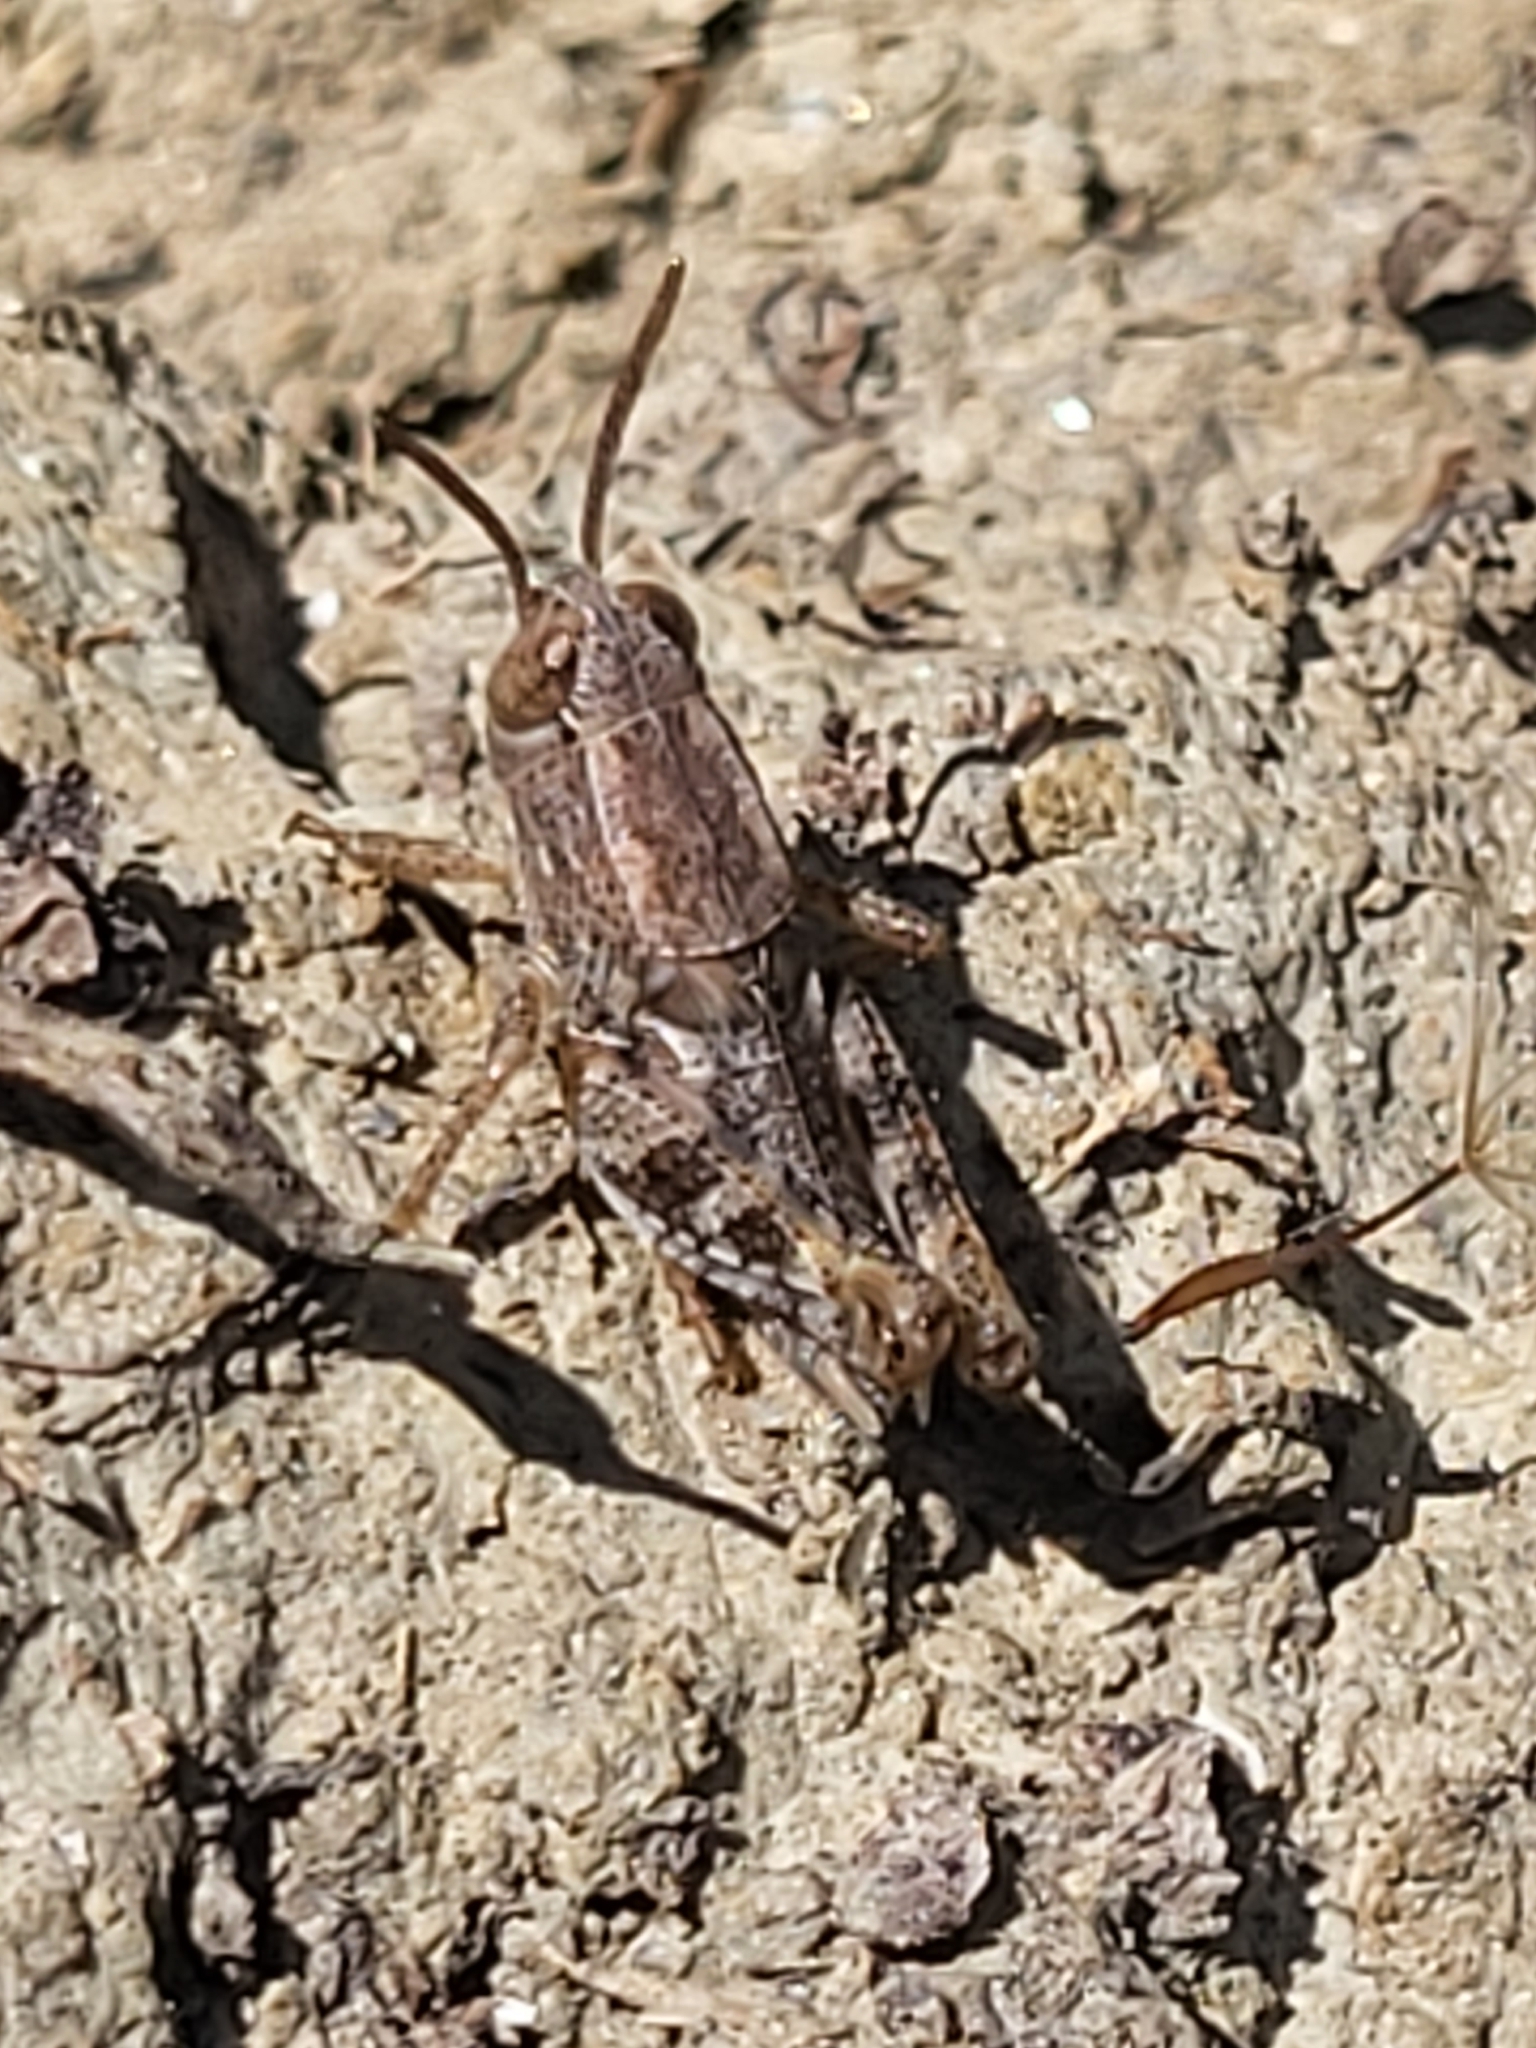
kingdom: Animalia
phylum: Arthropoda
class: Insecta
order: Orthoptera
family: Acrididae
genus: Calliptamus
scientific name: Calliptamus
